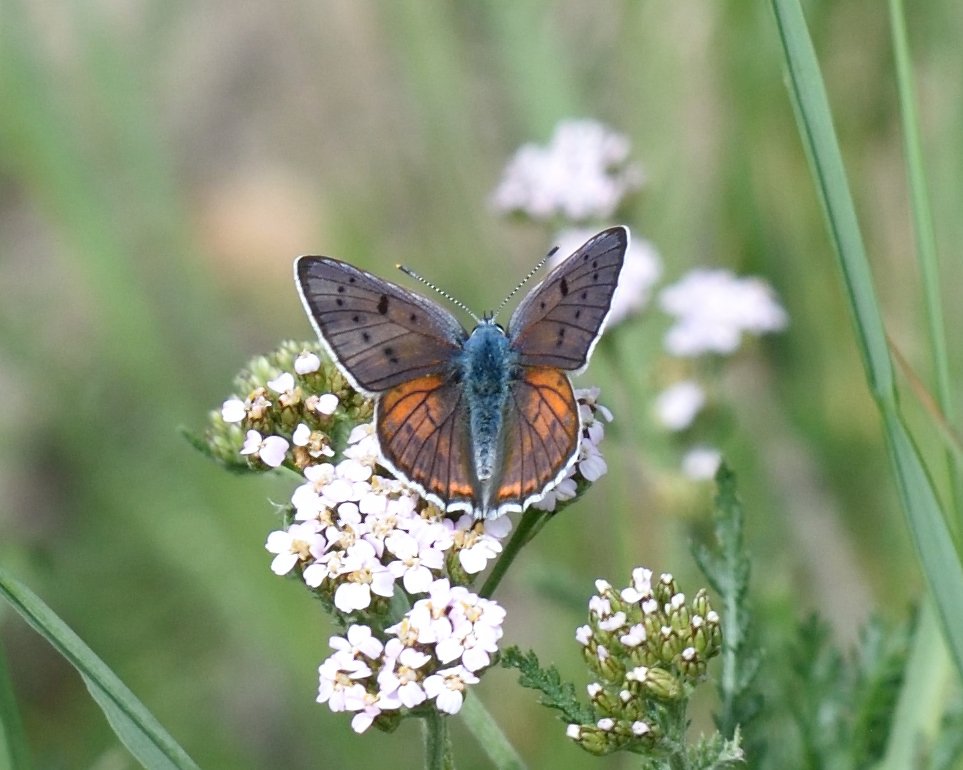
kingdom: Animalia
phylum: Arthropoda
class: Insecta
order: Lepidoptera
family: Lycaenidae
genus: Lycaena
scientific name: Lycaena alciphron
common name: Purple-shot copper
